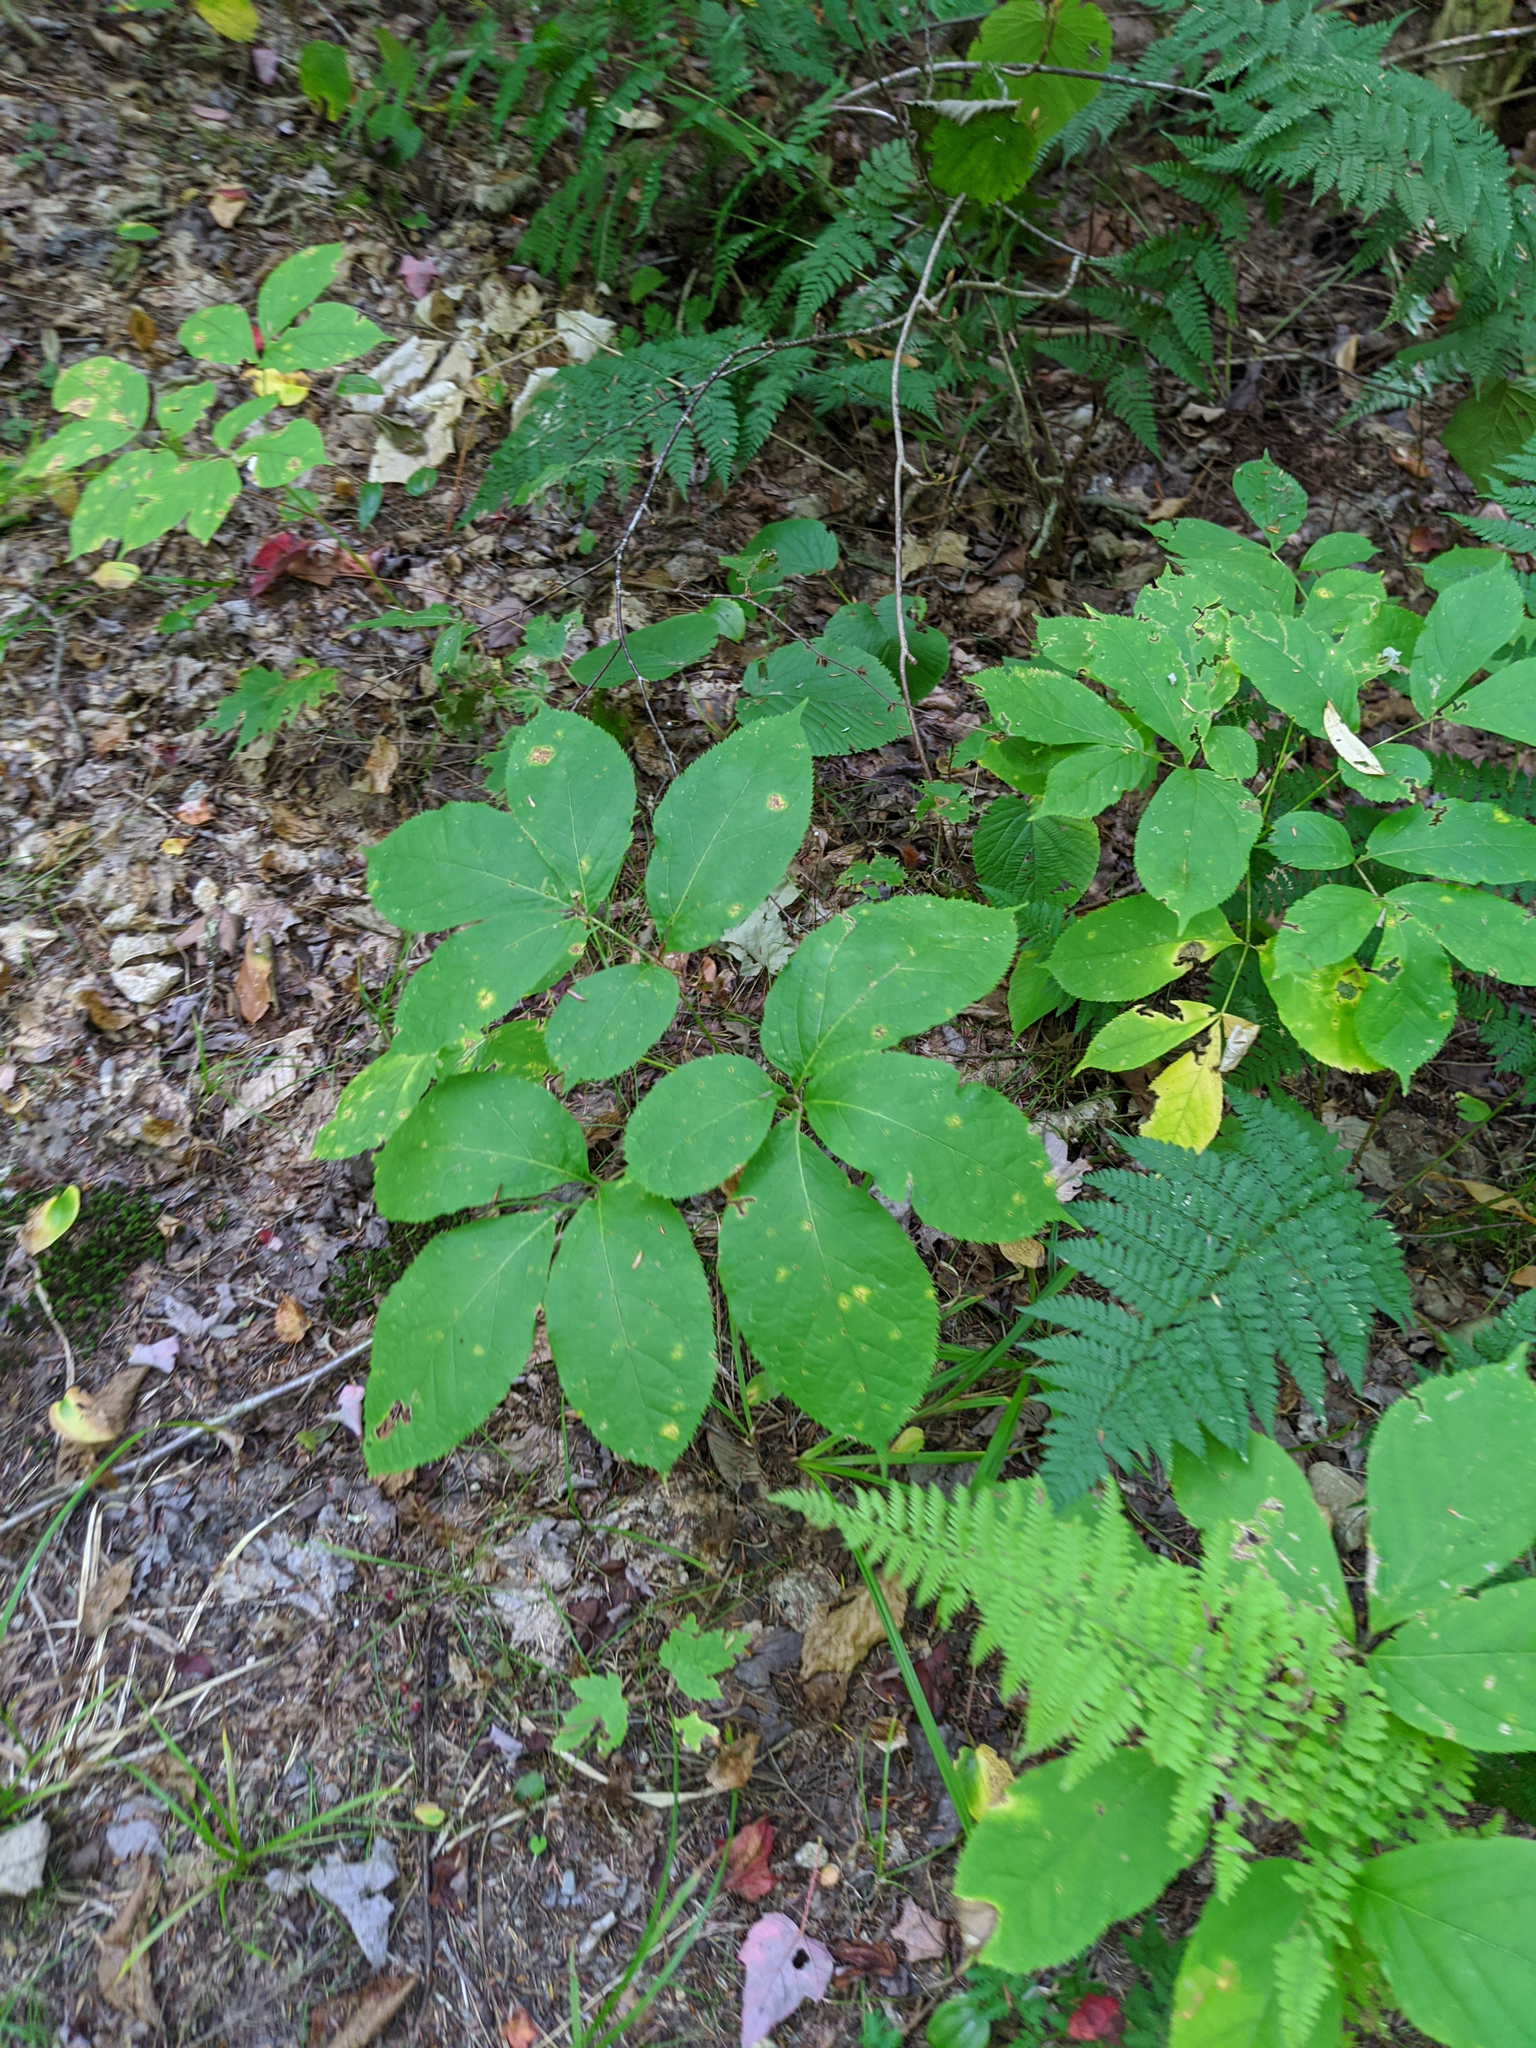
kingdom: Plantae
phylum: Tracheophyta
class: Magnoliopsida
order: Apiales
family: Araliaceae
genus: Aralia
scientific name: Aralia nudicaulis
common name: Wild sarsaparilla
